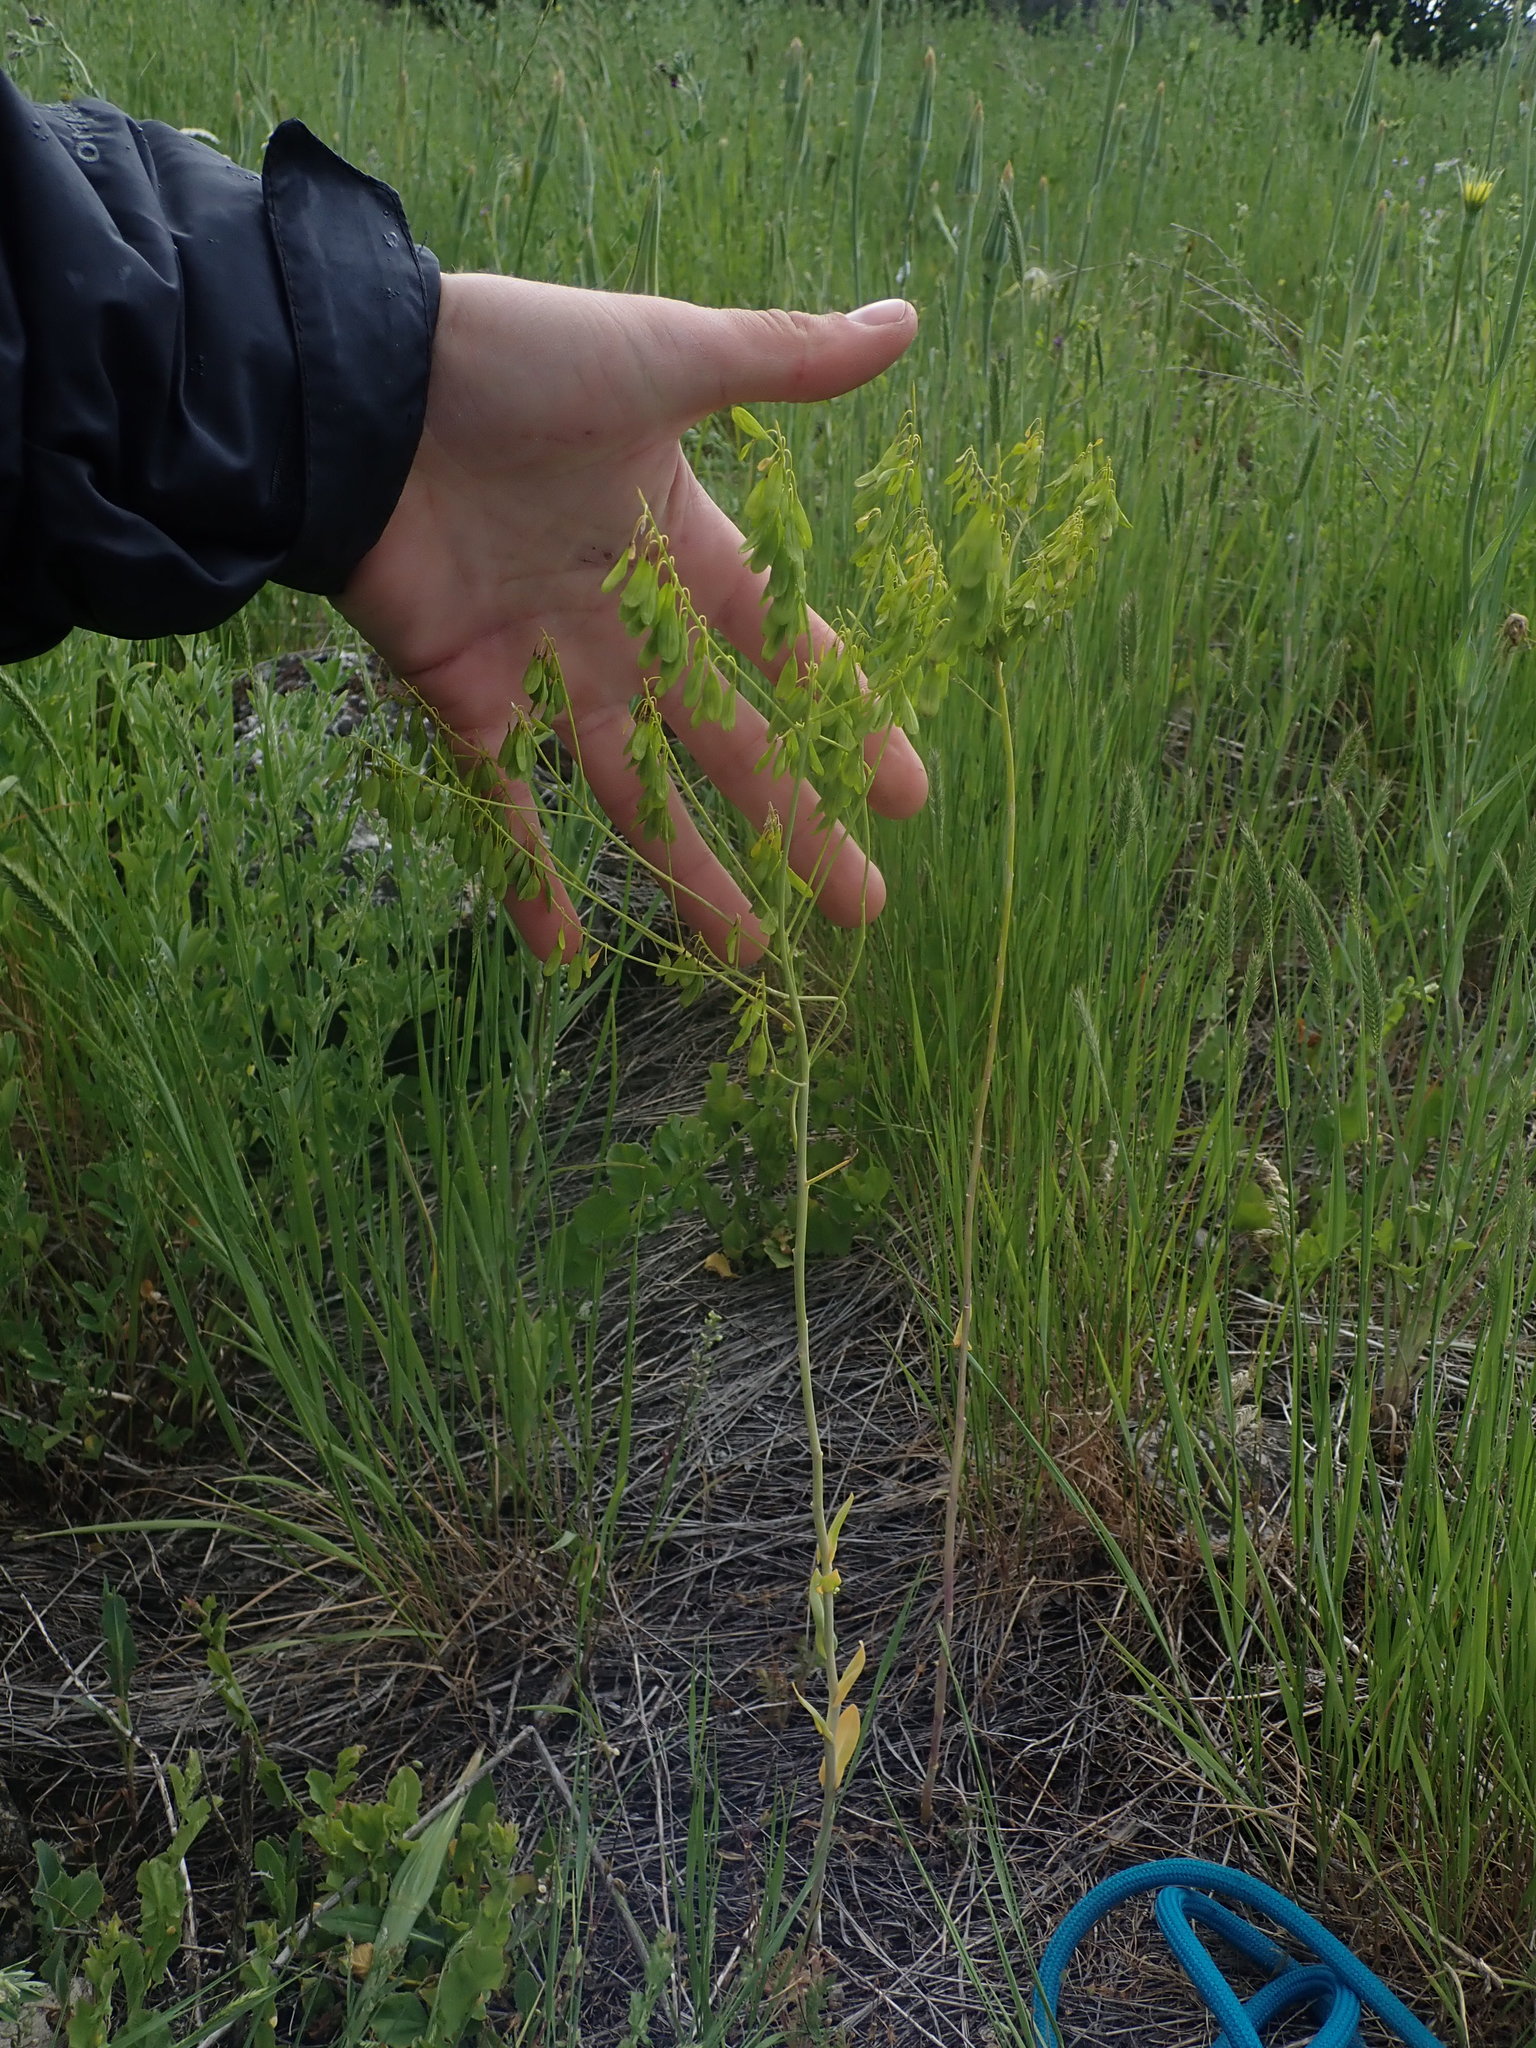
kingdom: Plantae
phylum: Tracheophyta
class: Magnoliopsida
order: Brassicales
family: Brassicaceae
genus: Isatis
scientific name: Isatis tinctoria
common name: Woad
